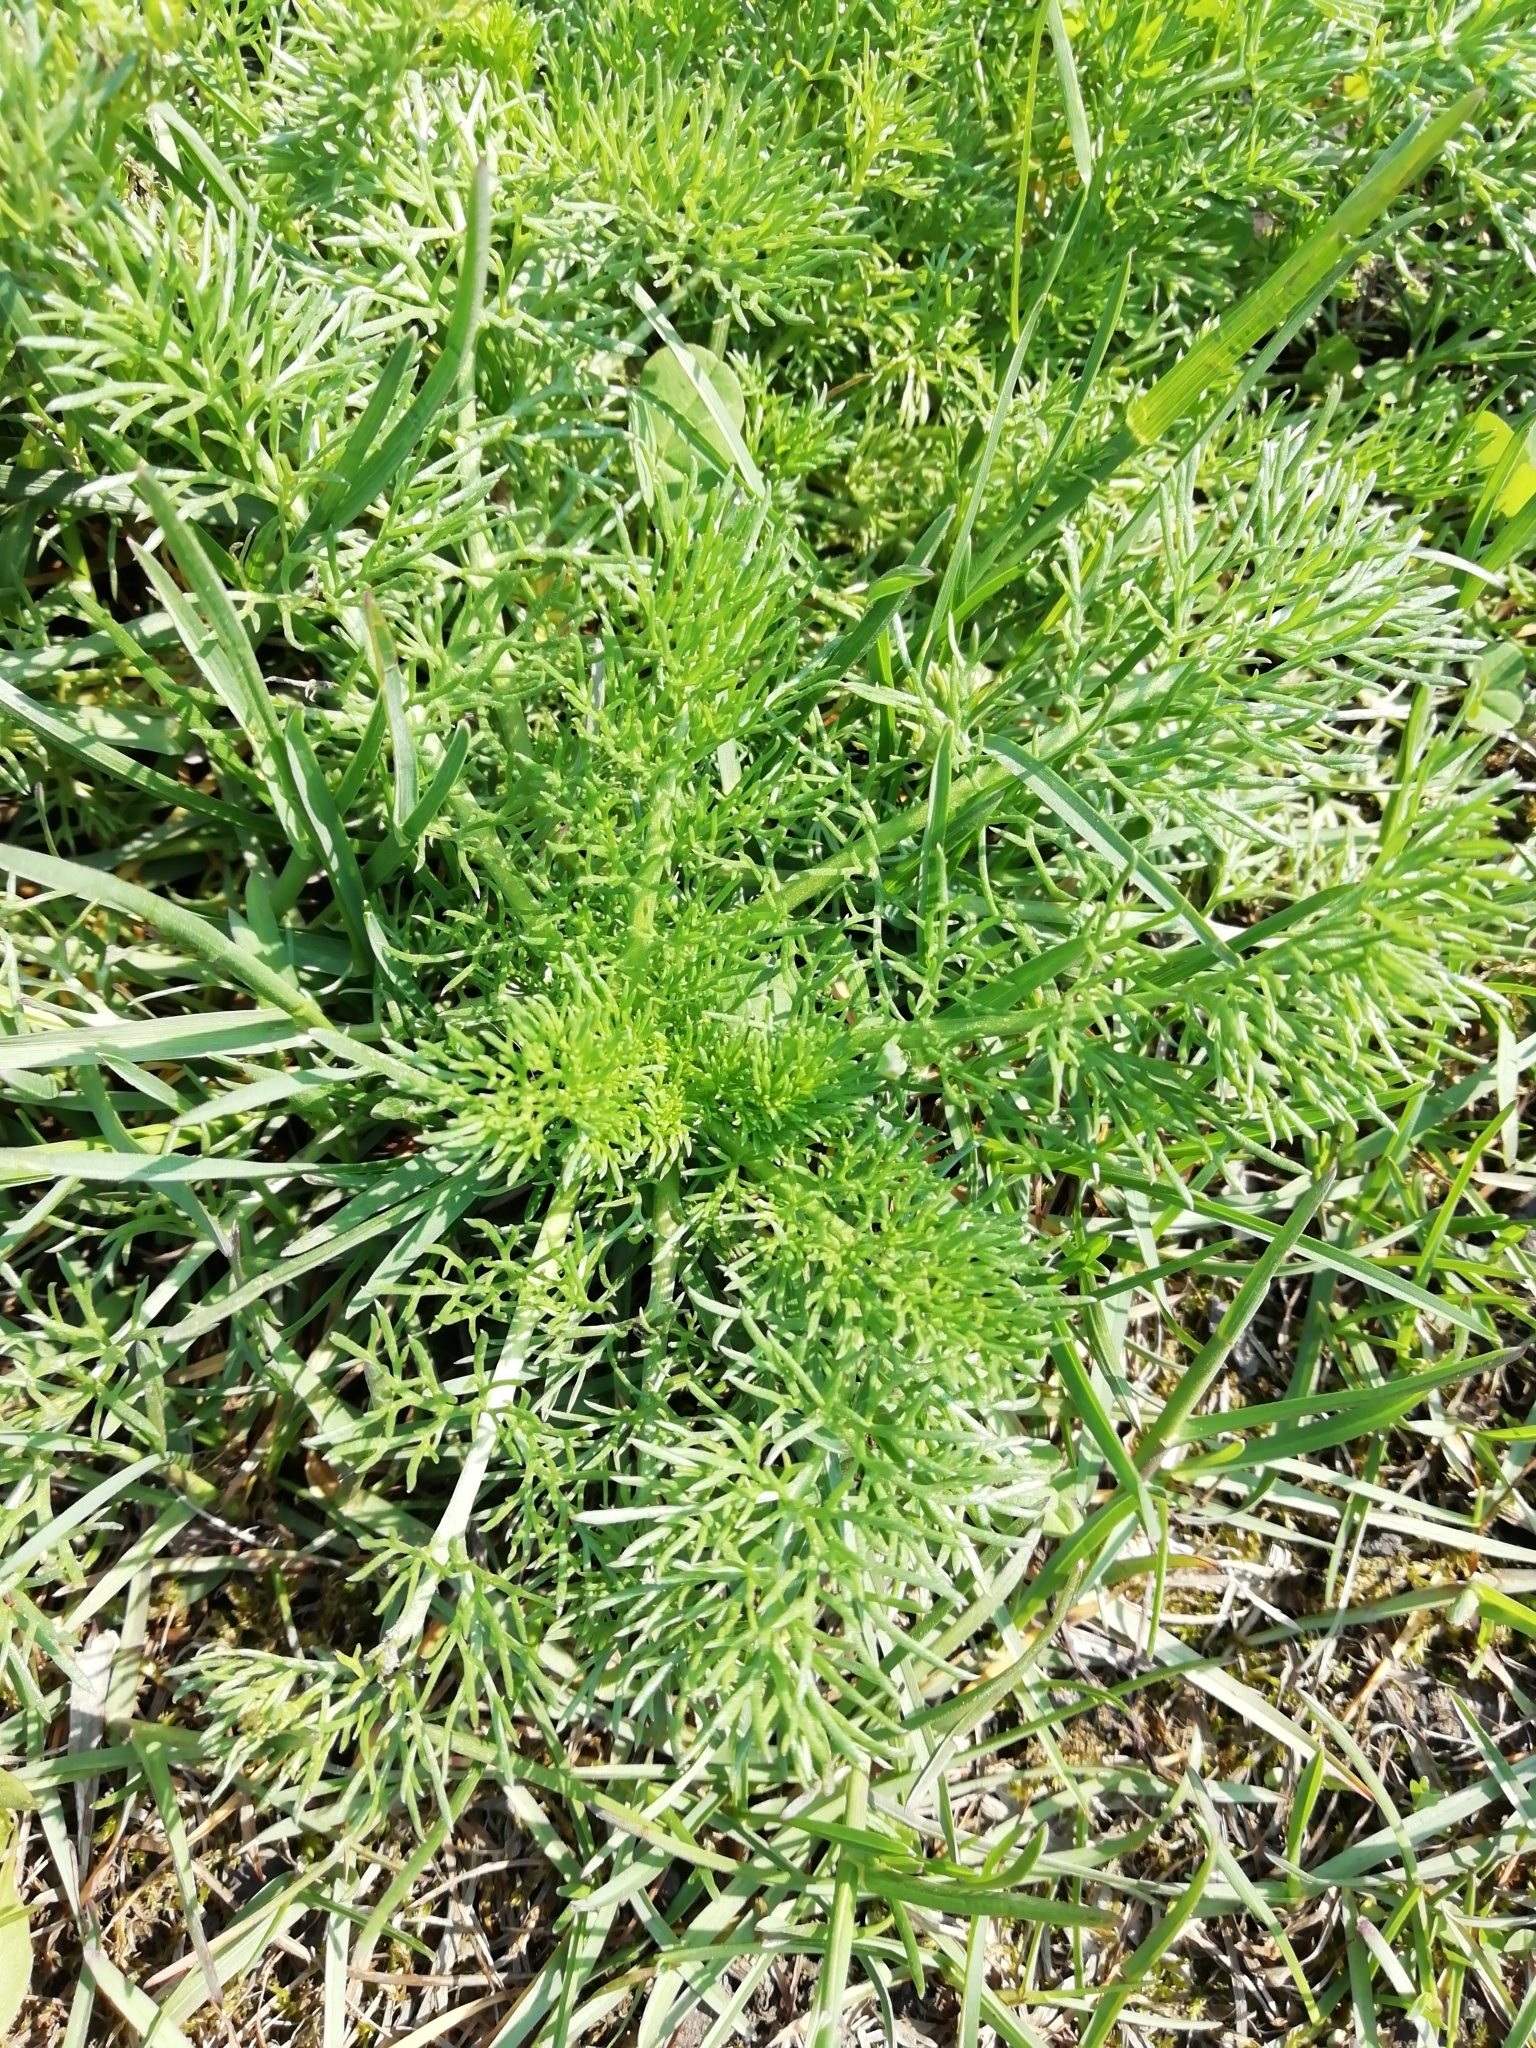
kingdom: Plantae
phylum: Tracheophyta
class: Magnoliopsida
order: Asterales
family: Asteraceae
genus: Tripleurospermum
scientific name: Tripleurospermum inodorum
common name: Scentless mayweed
